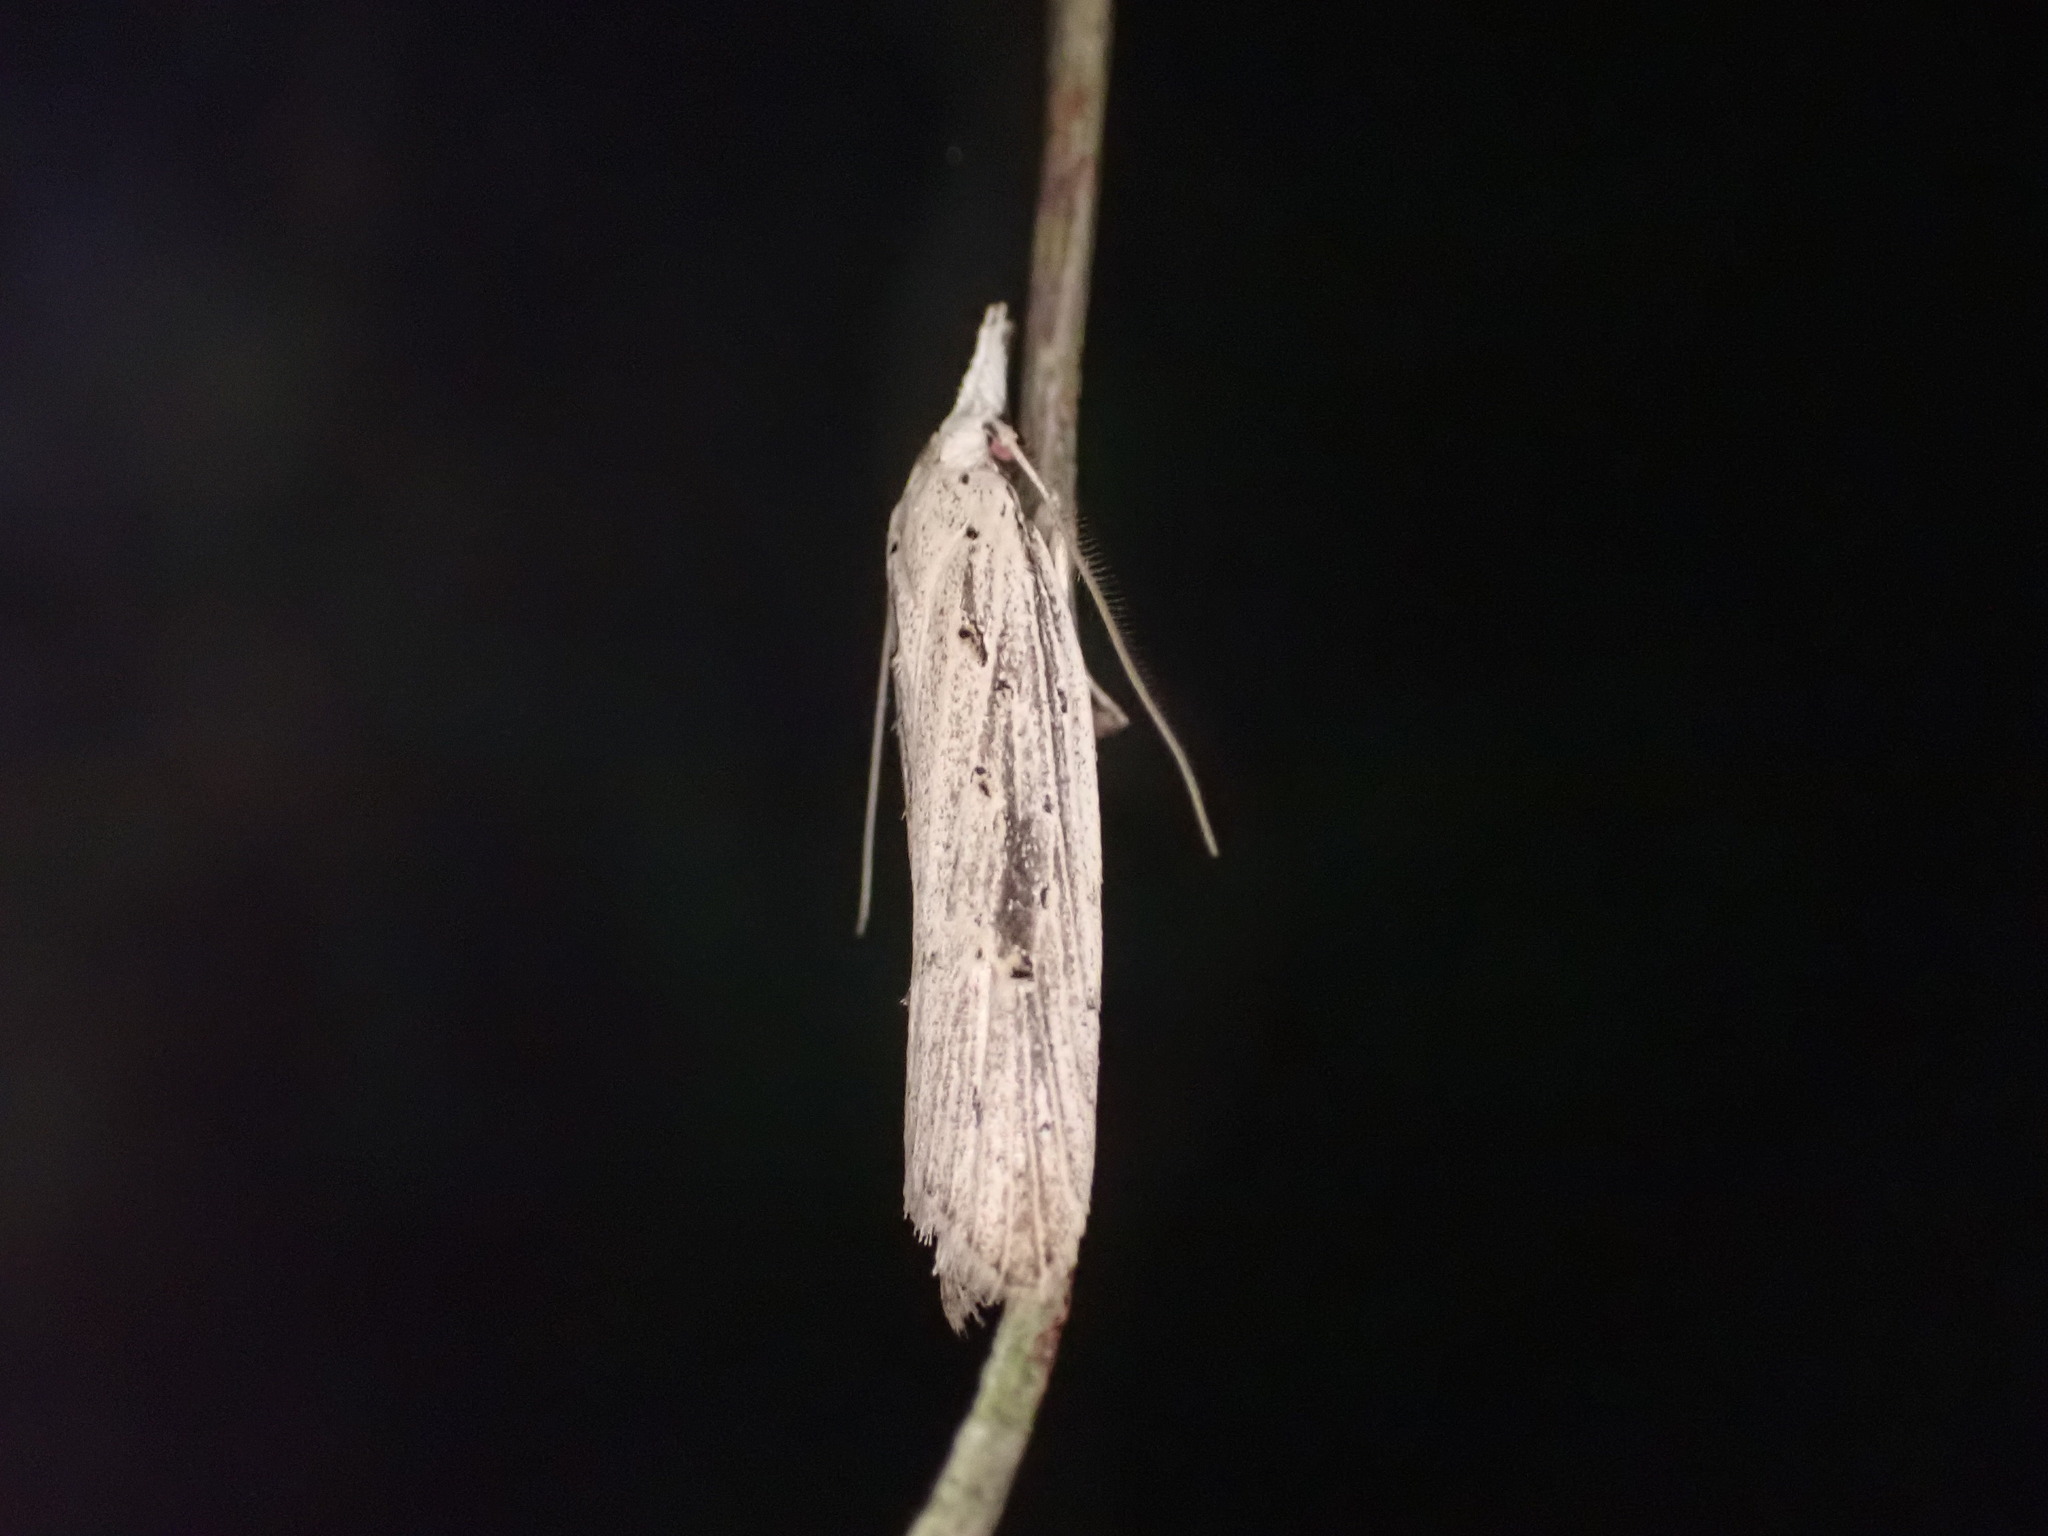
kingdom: Animalia
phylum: Arthropoda
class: Insecta
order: Lepidoptera
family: Carposinidae
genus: Carposina
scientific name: Carposina Heterocrossa exochana
